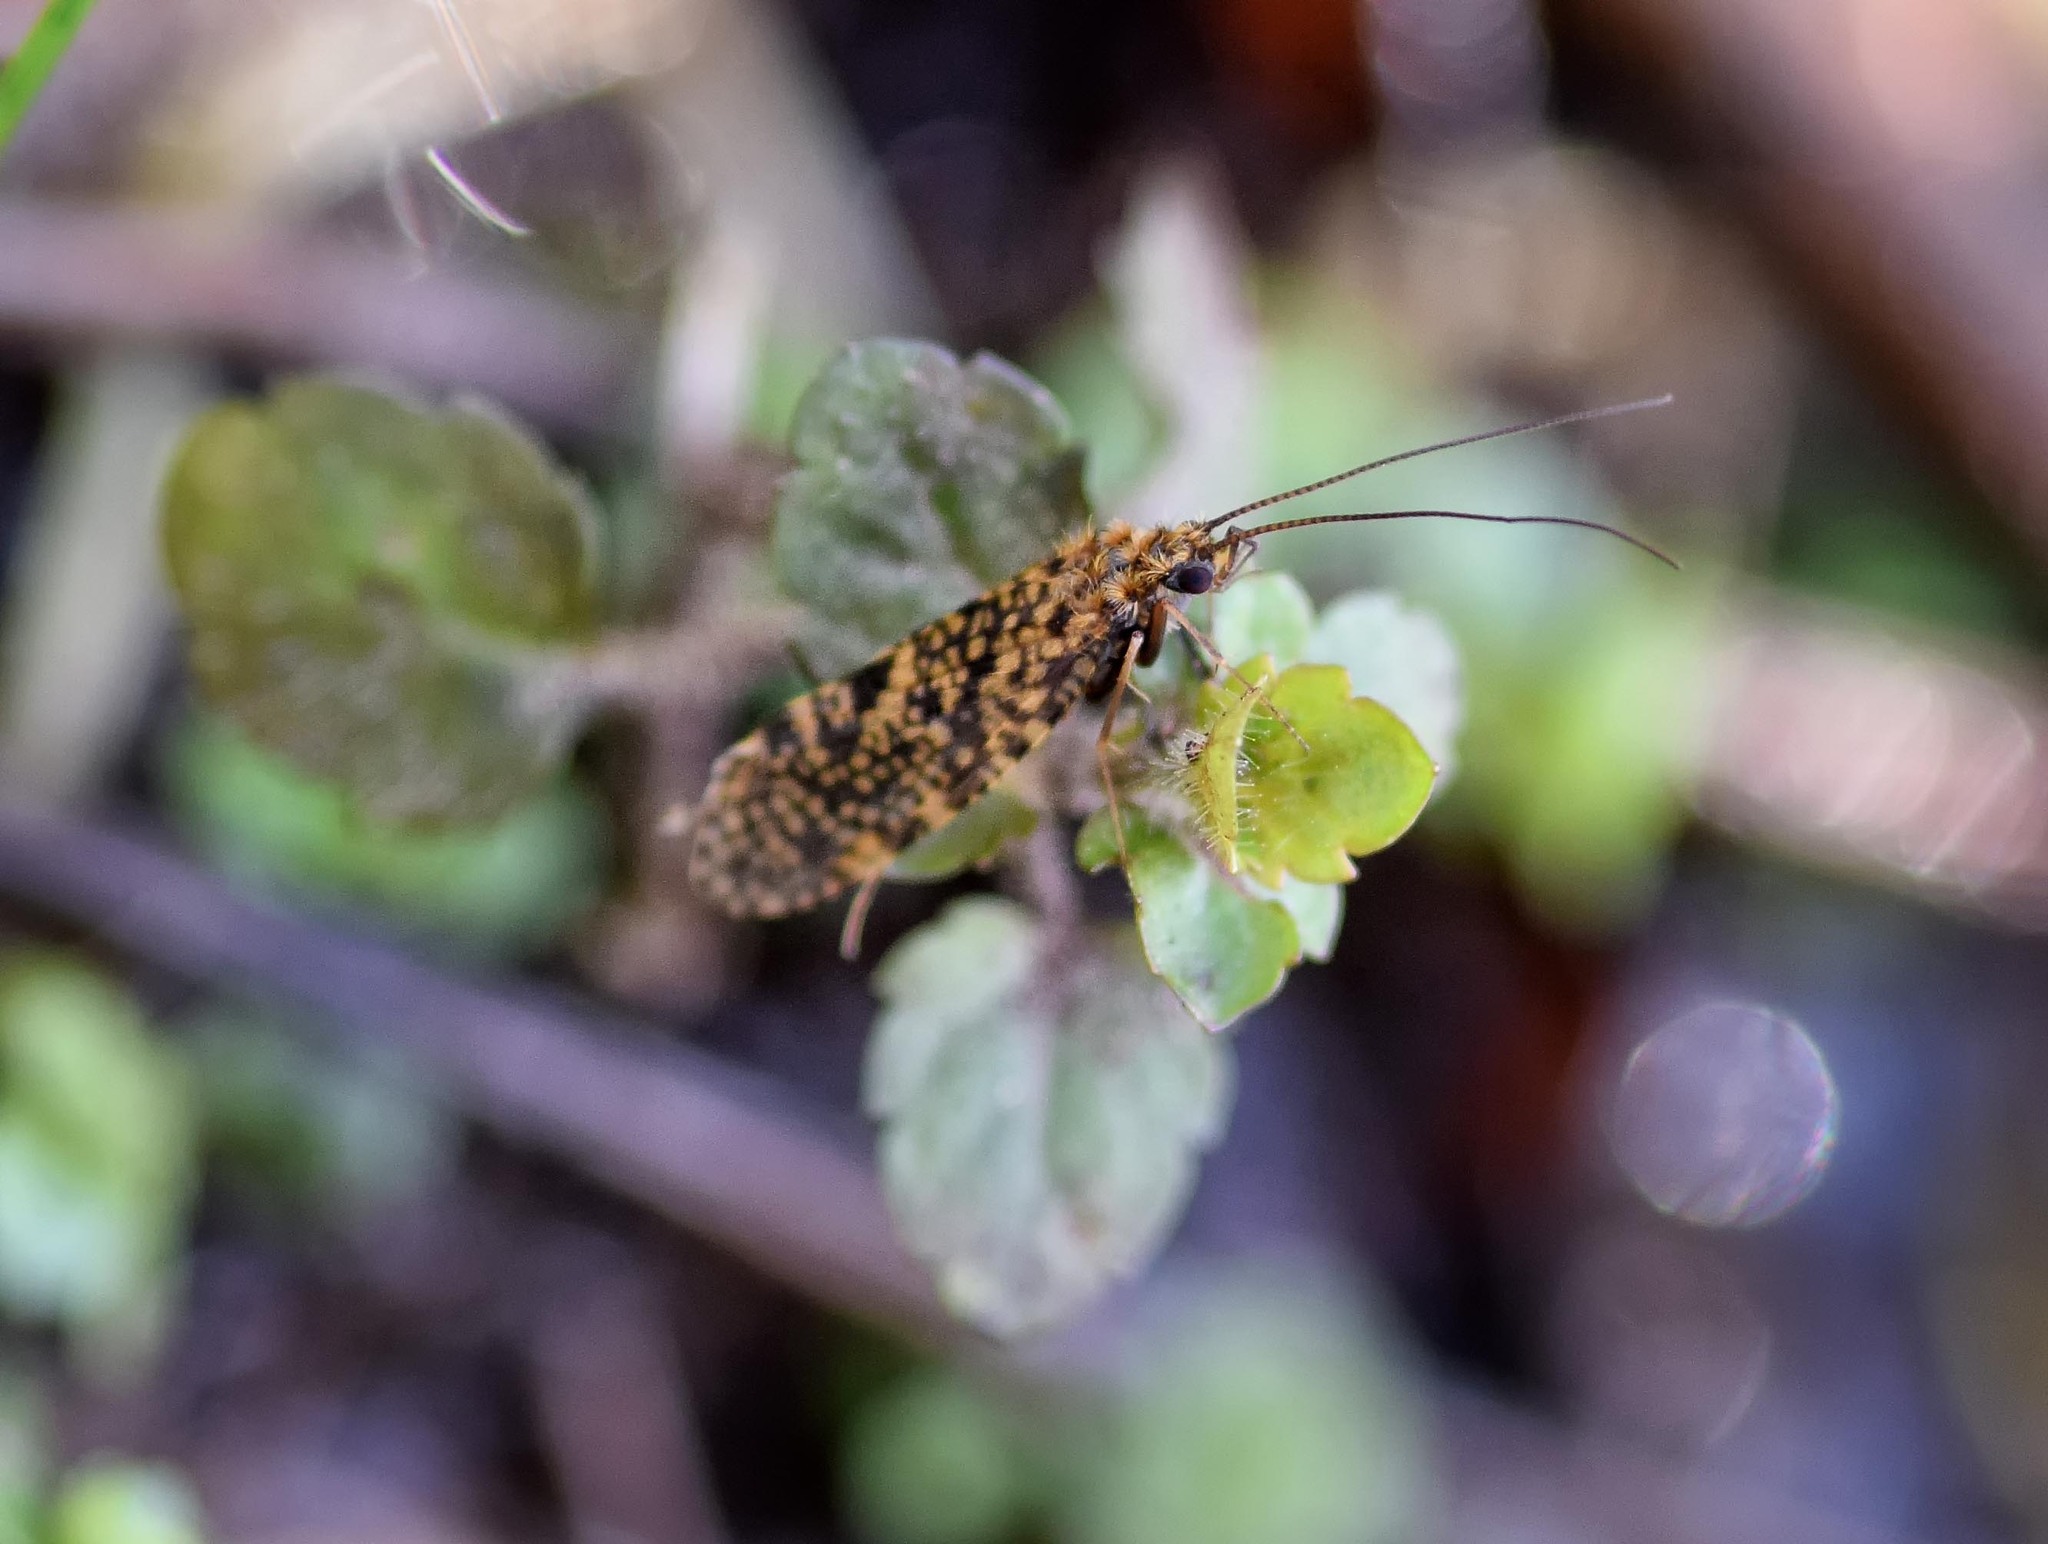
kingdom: Animalia
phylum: Arthropoda
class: Insecta
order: Trichoptera
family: Philopotamidae
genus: Philopotamus
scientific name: Philopotamus montanus
